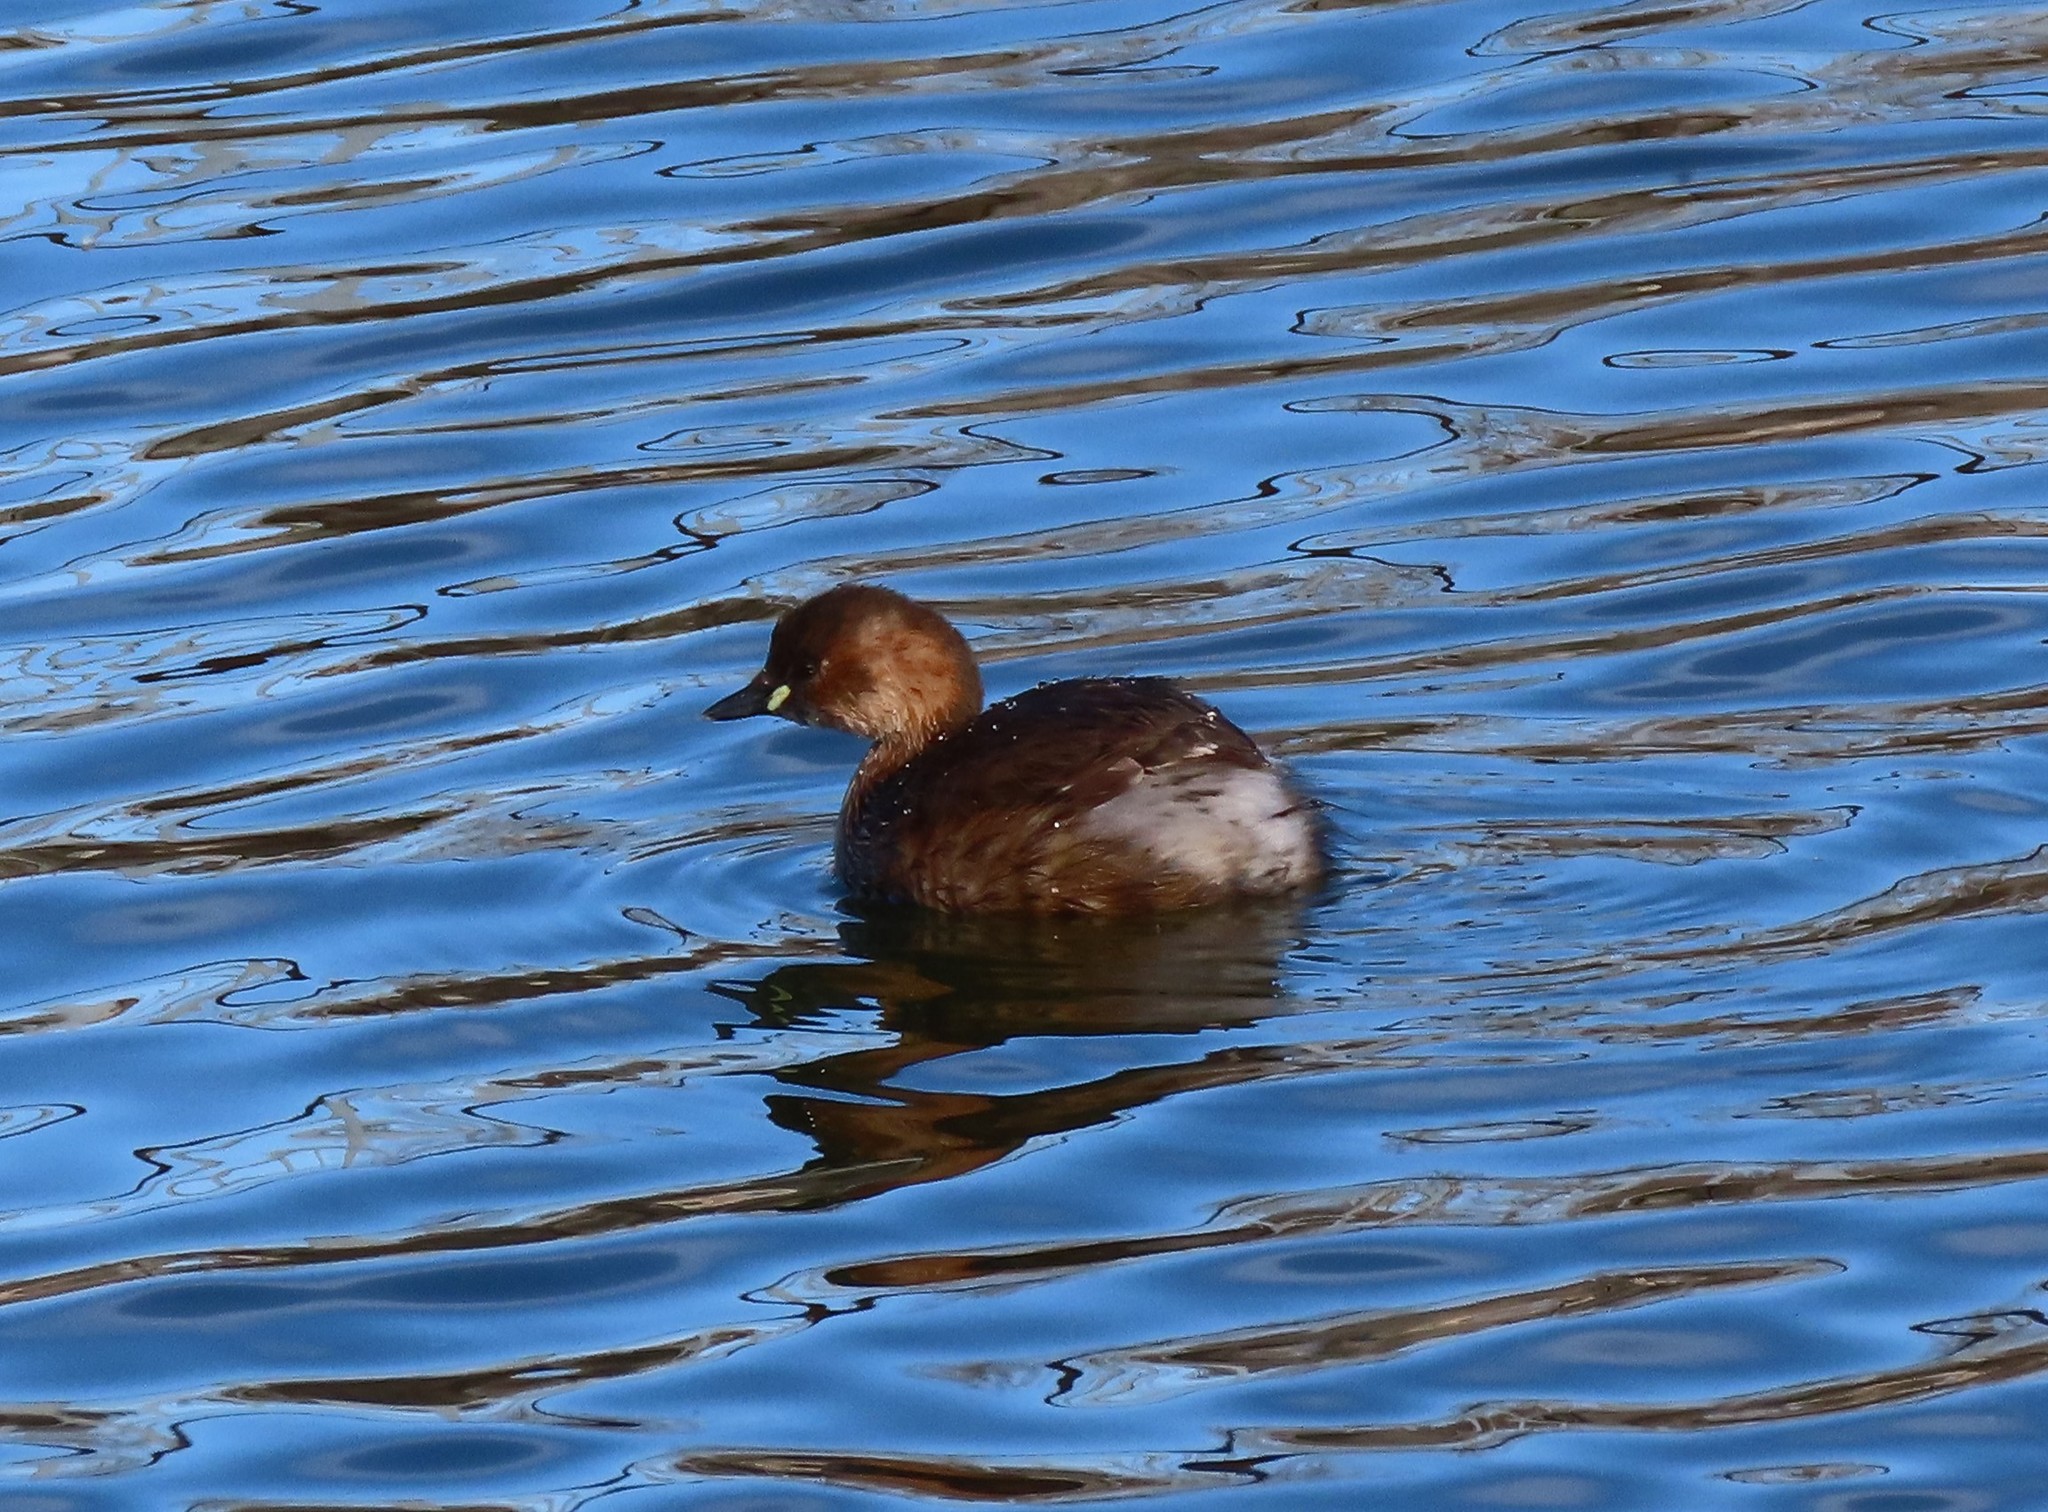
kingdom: Animalia
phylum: Chordata
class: Aves
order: Podicipediformes
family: Podicipedidae
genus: Tachybaptus
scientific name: Tachybaptus ruficollis
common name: Little grebe
